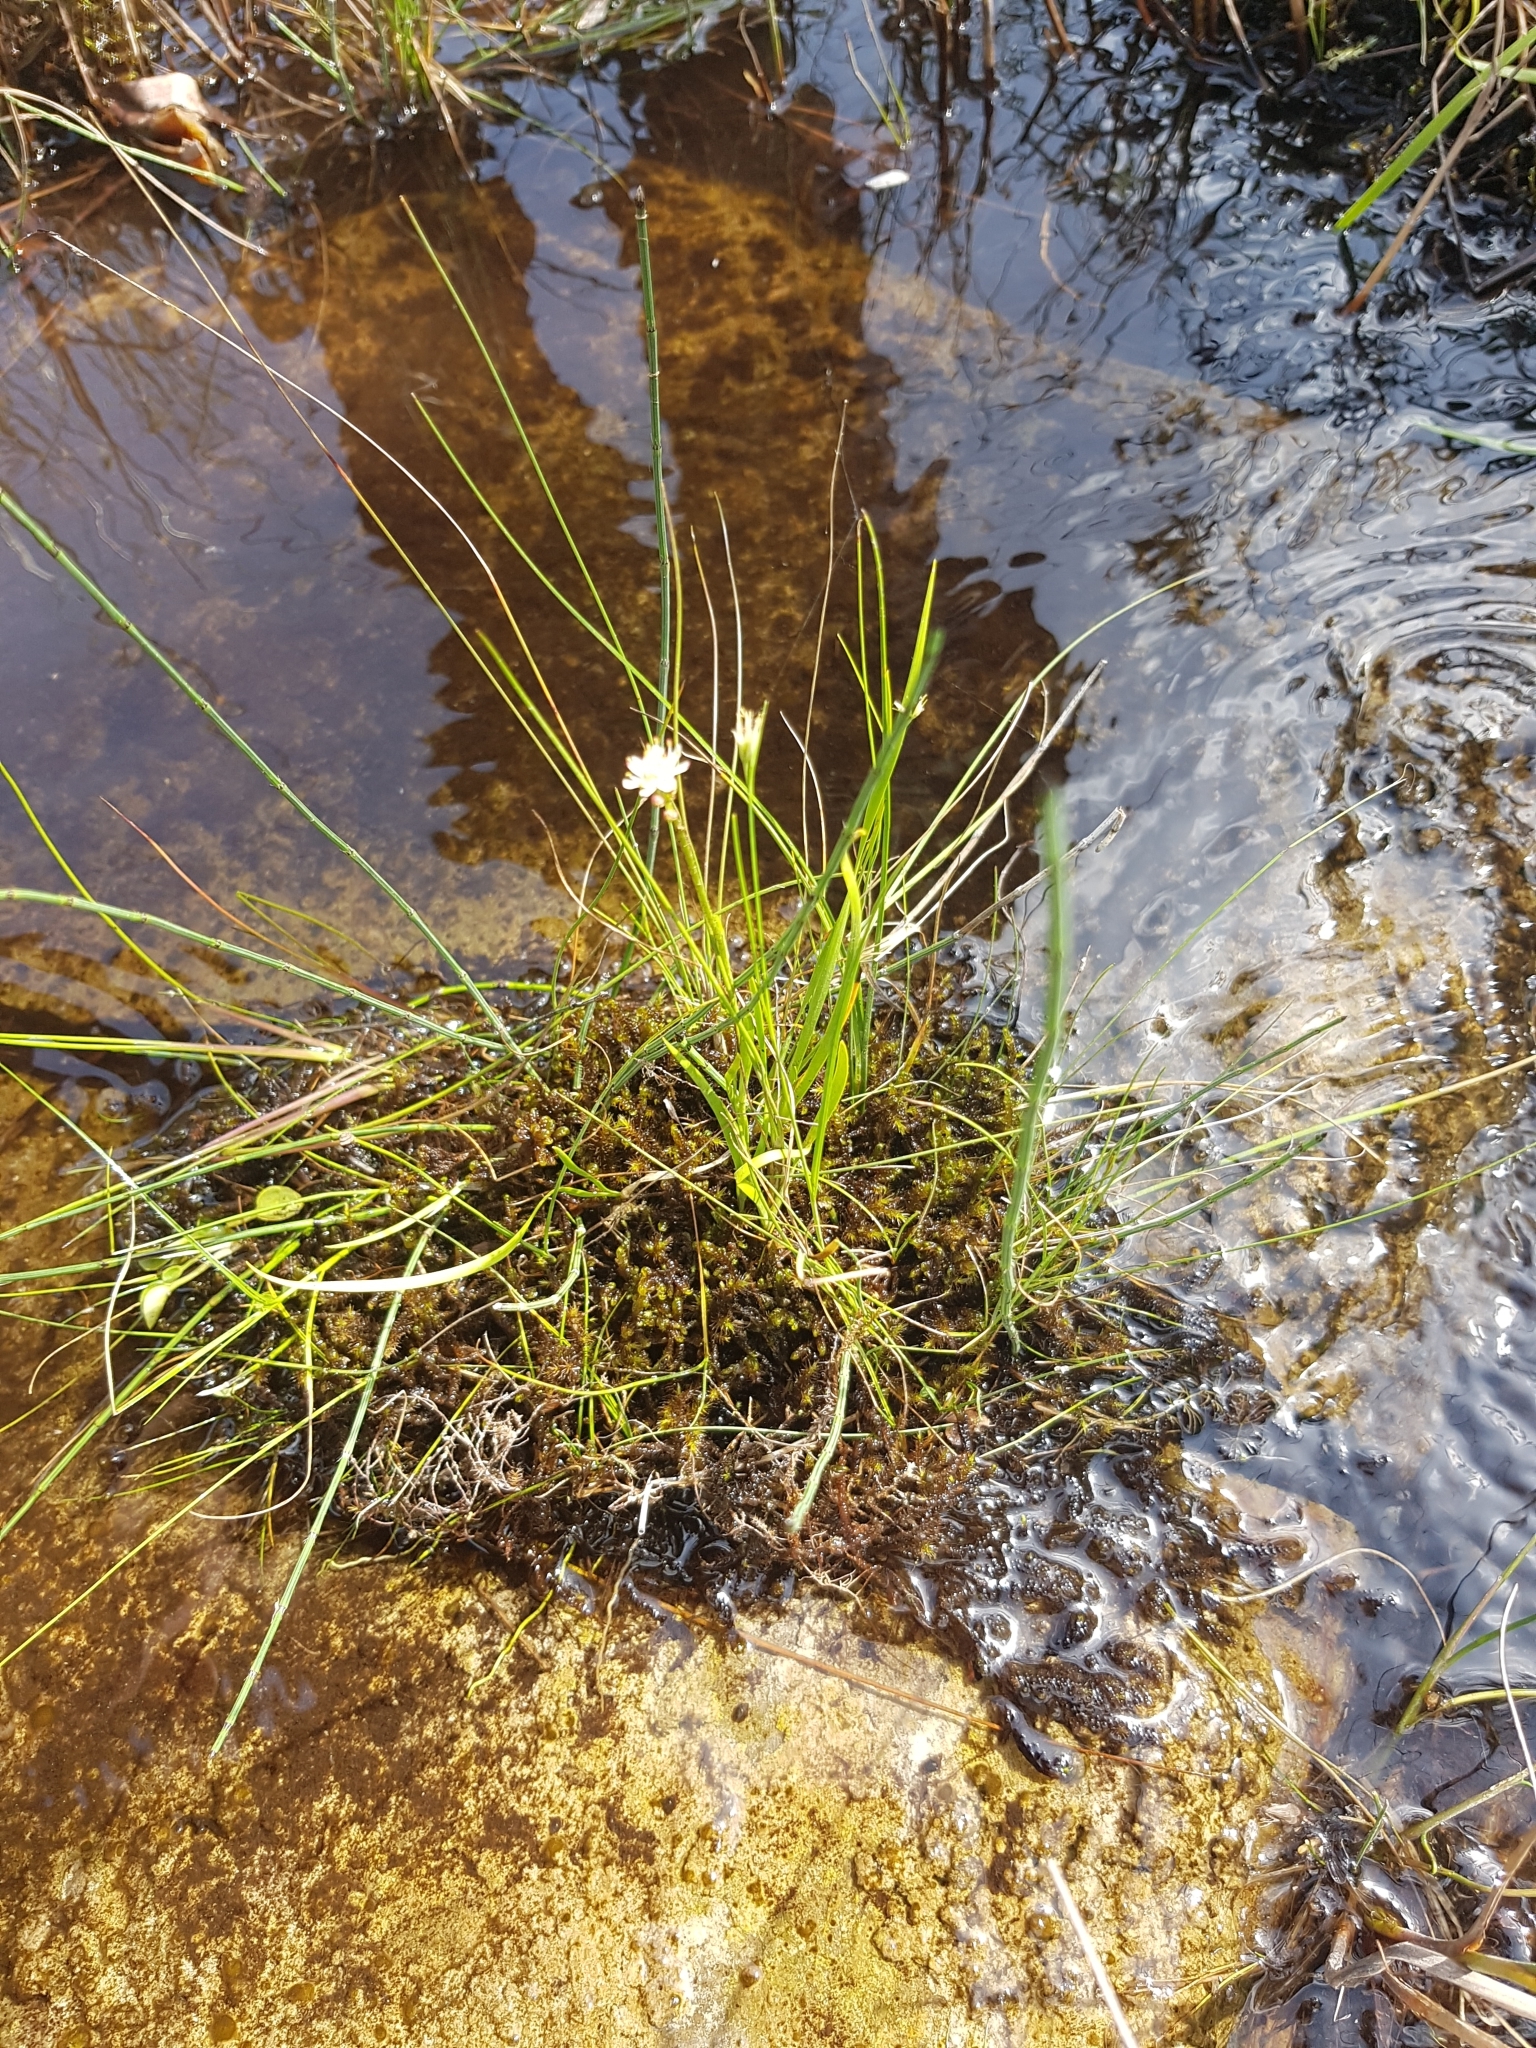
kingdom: Plantae
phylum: Tracheophyta
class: Liliopsida
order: Alismatales
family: Tofieldiaceae
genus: Triantha
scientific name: Triantha glutinosa
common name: Glutinous tofieldia
